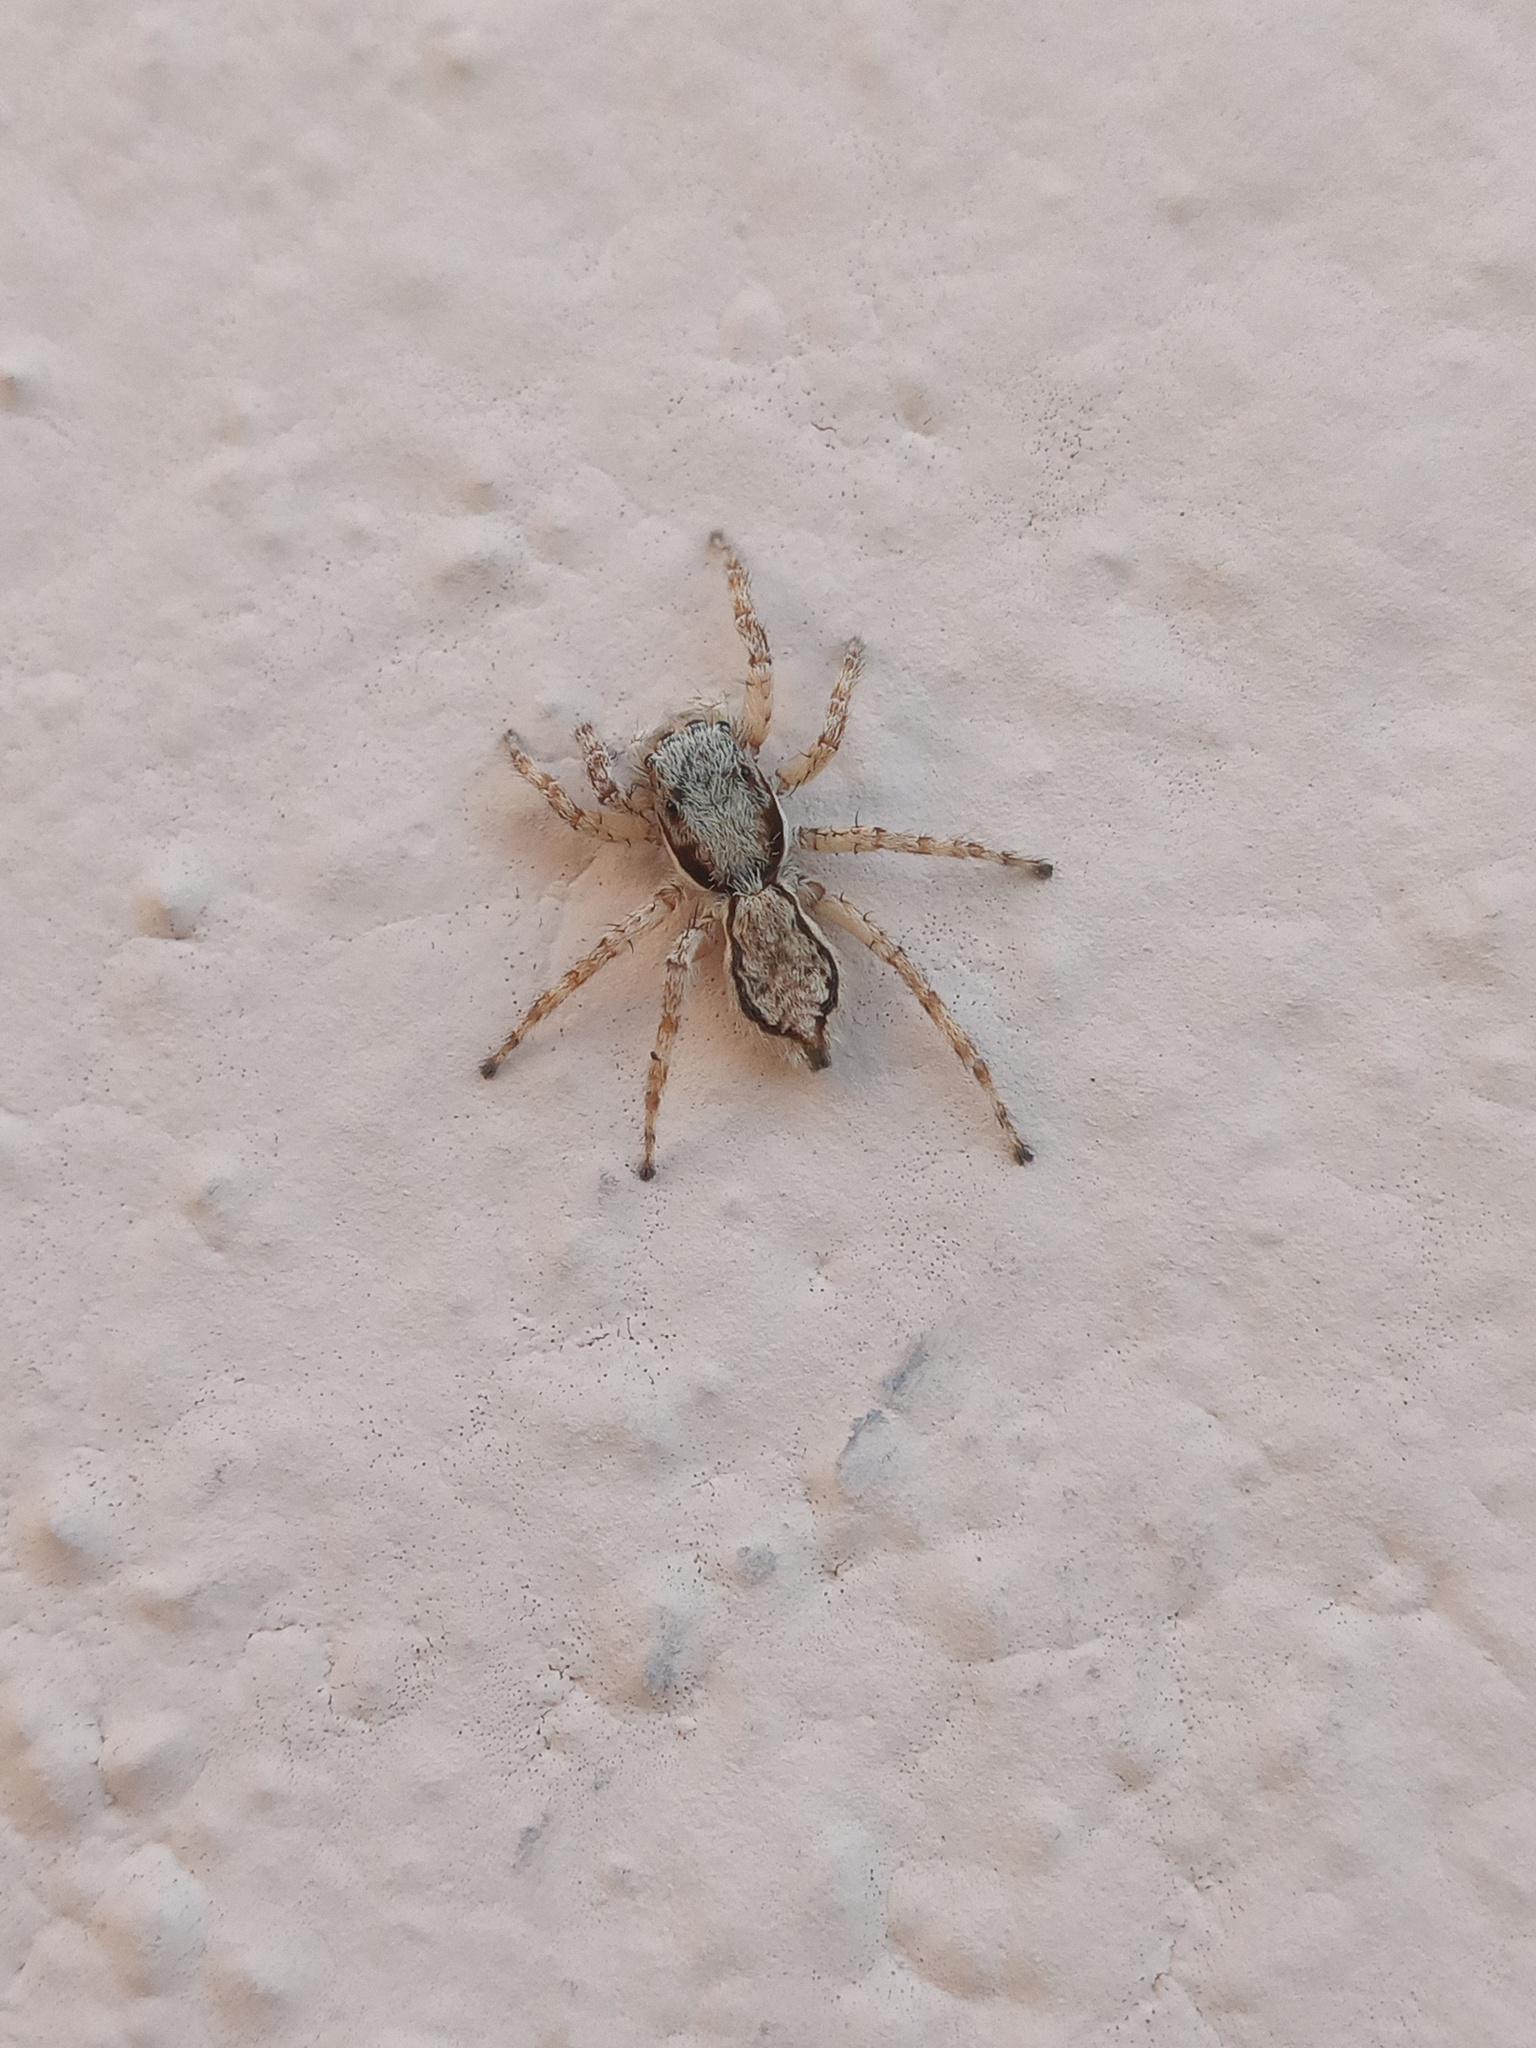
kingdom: Animalia
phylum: Arthropoda
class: Arachnida
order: Araneae
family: Salticidae
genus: Menemerus
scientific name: Menemerus bivittatus
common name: Gray wall jumper
